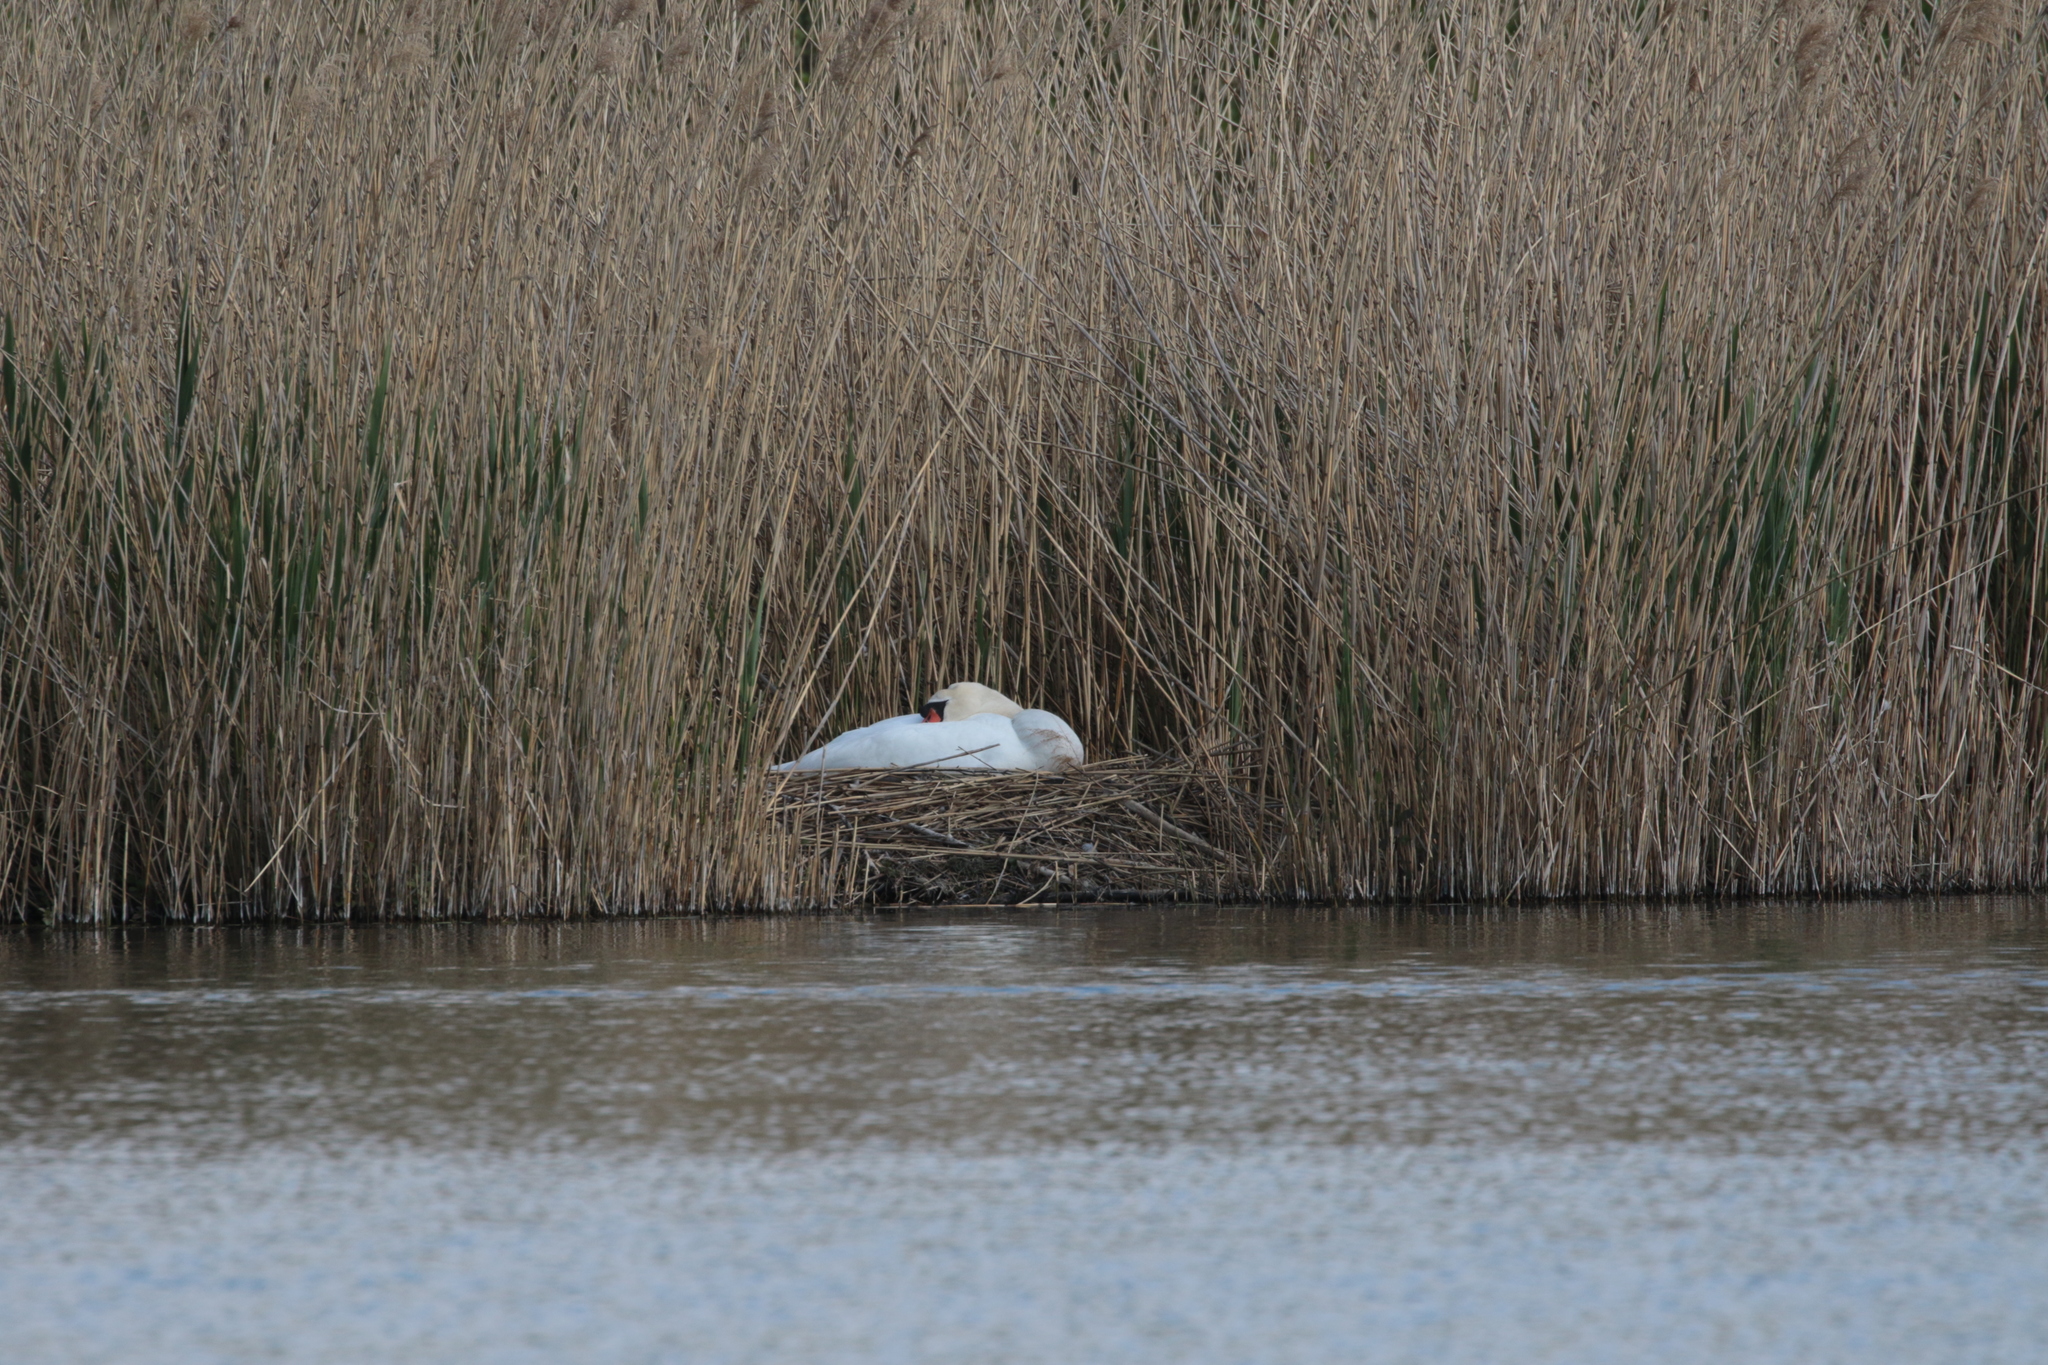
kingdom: Animalia
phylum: Chordata
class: Aves
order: Anseriformes
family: Anatidae
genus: Cygnus
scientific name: Cygnus olor
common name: Mute swan
